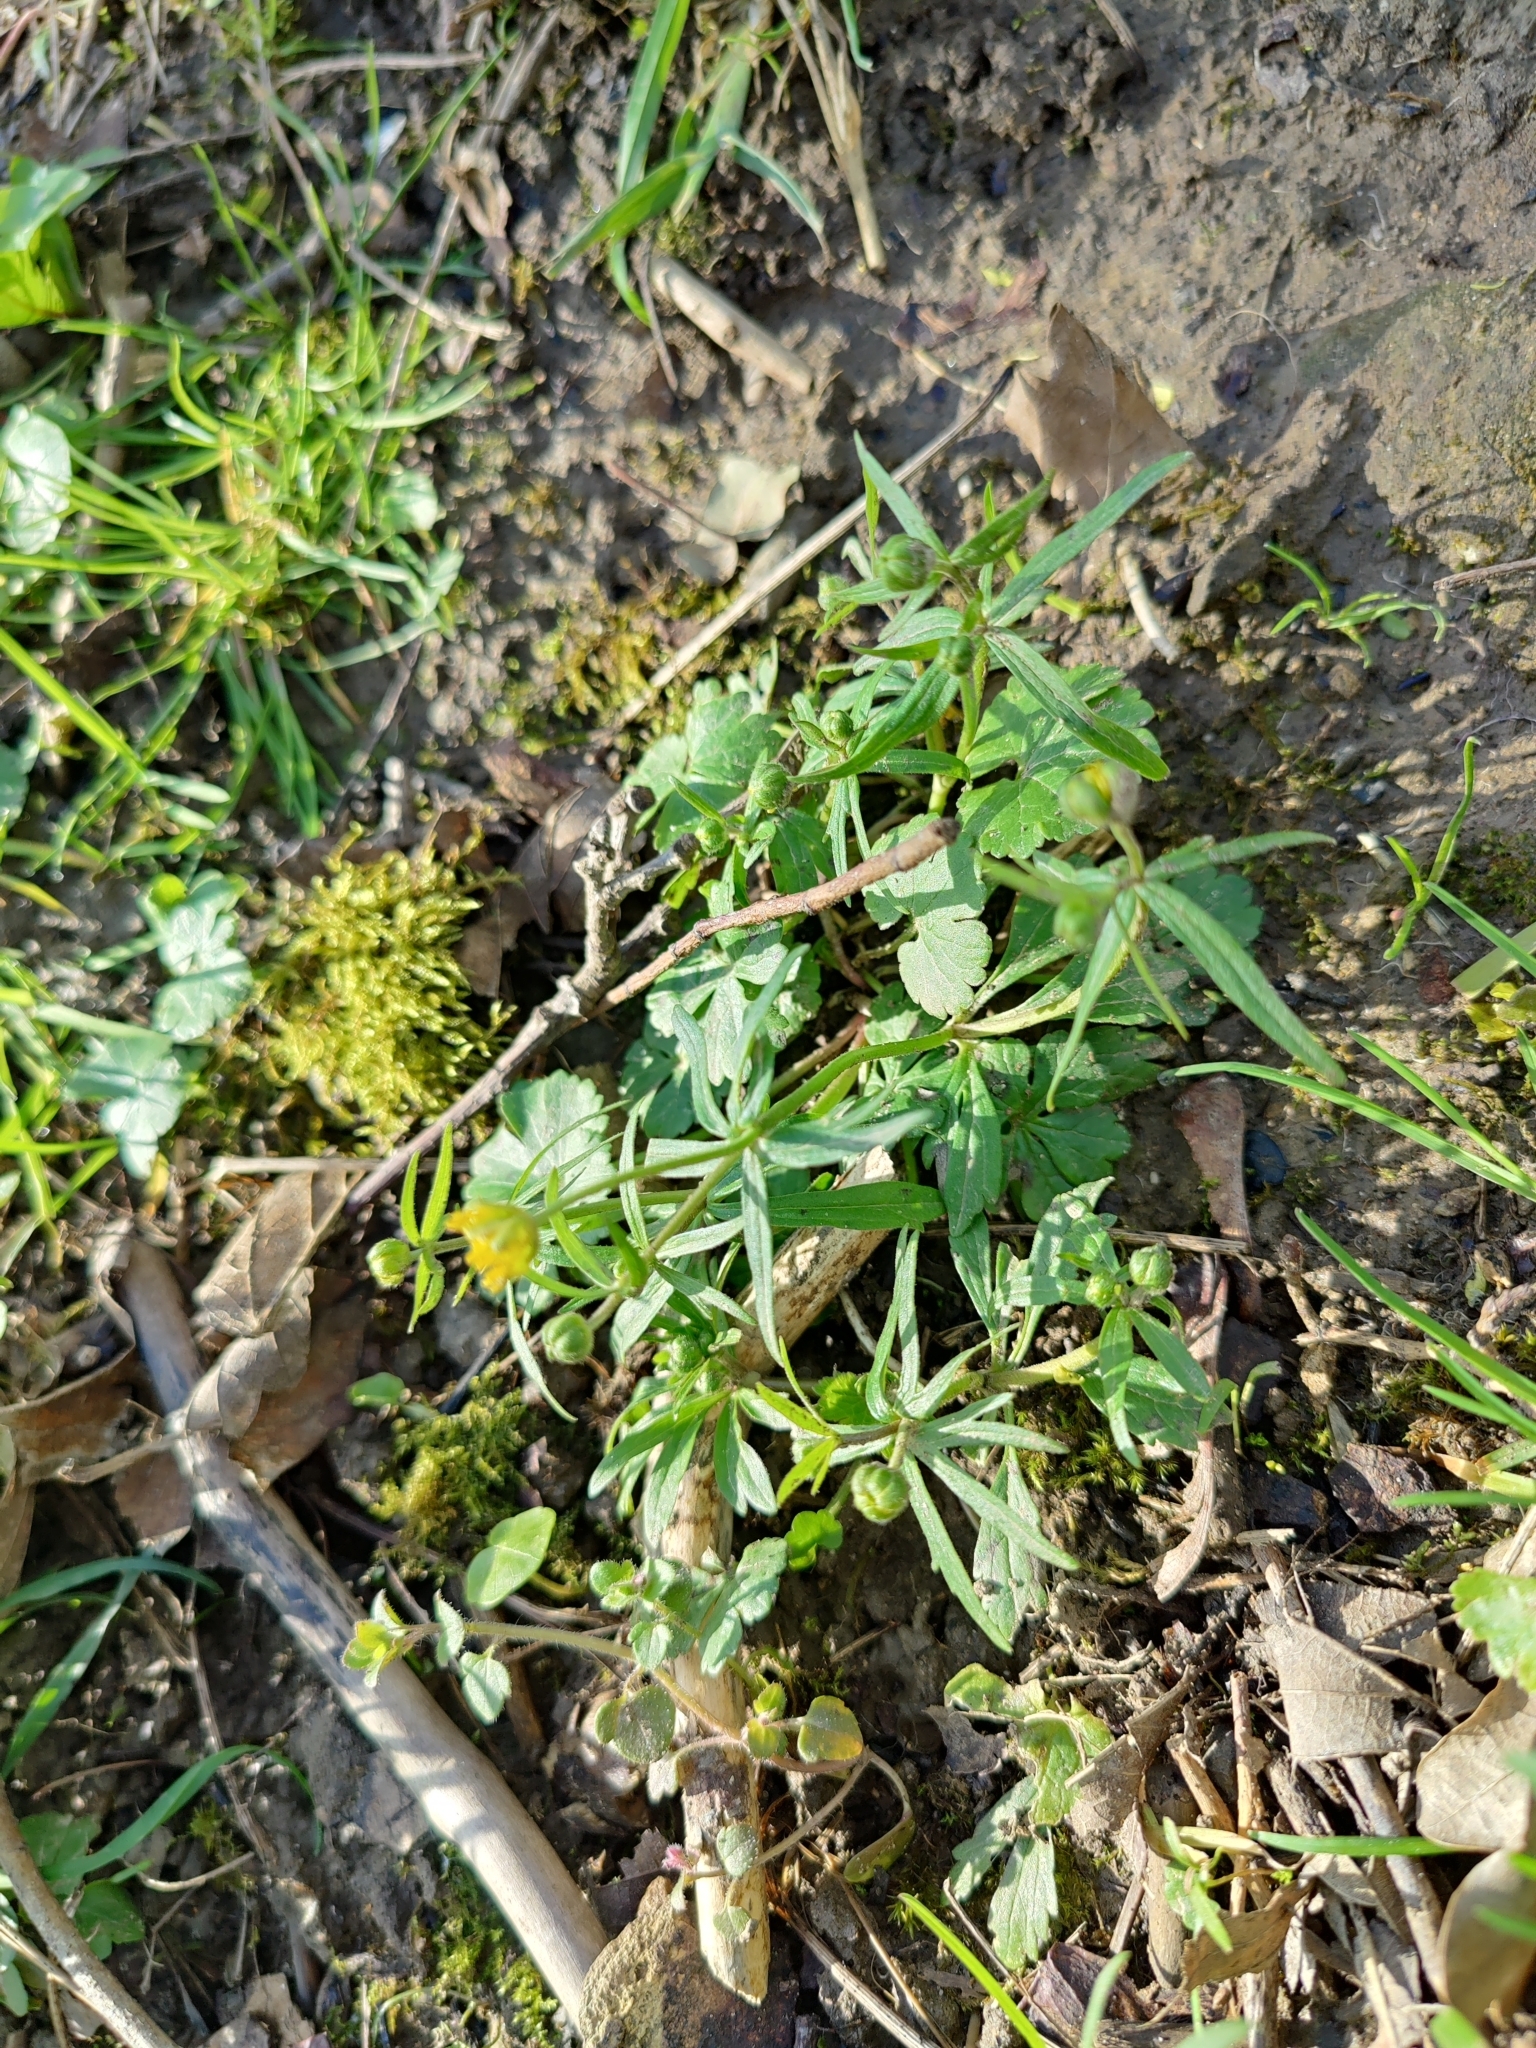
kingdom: Plantae
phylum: Tracheophyta
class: Magnoliopsida
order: Ranunculales
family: Ranunculaceae
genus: Ranunculus
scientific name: Ranunculus auricomus
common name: Goldilocks buttercup
